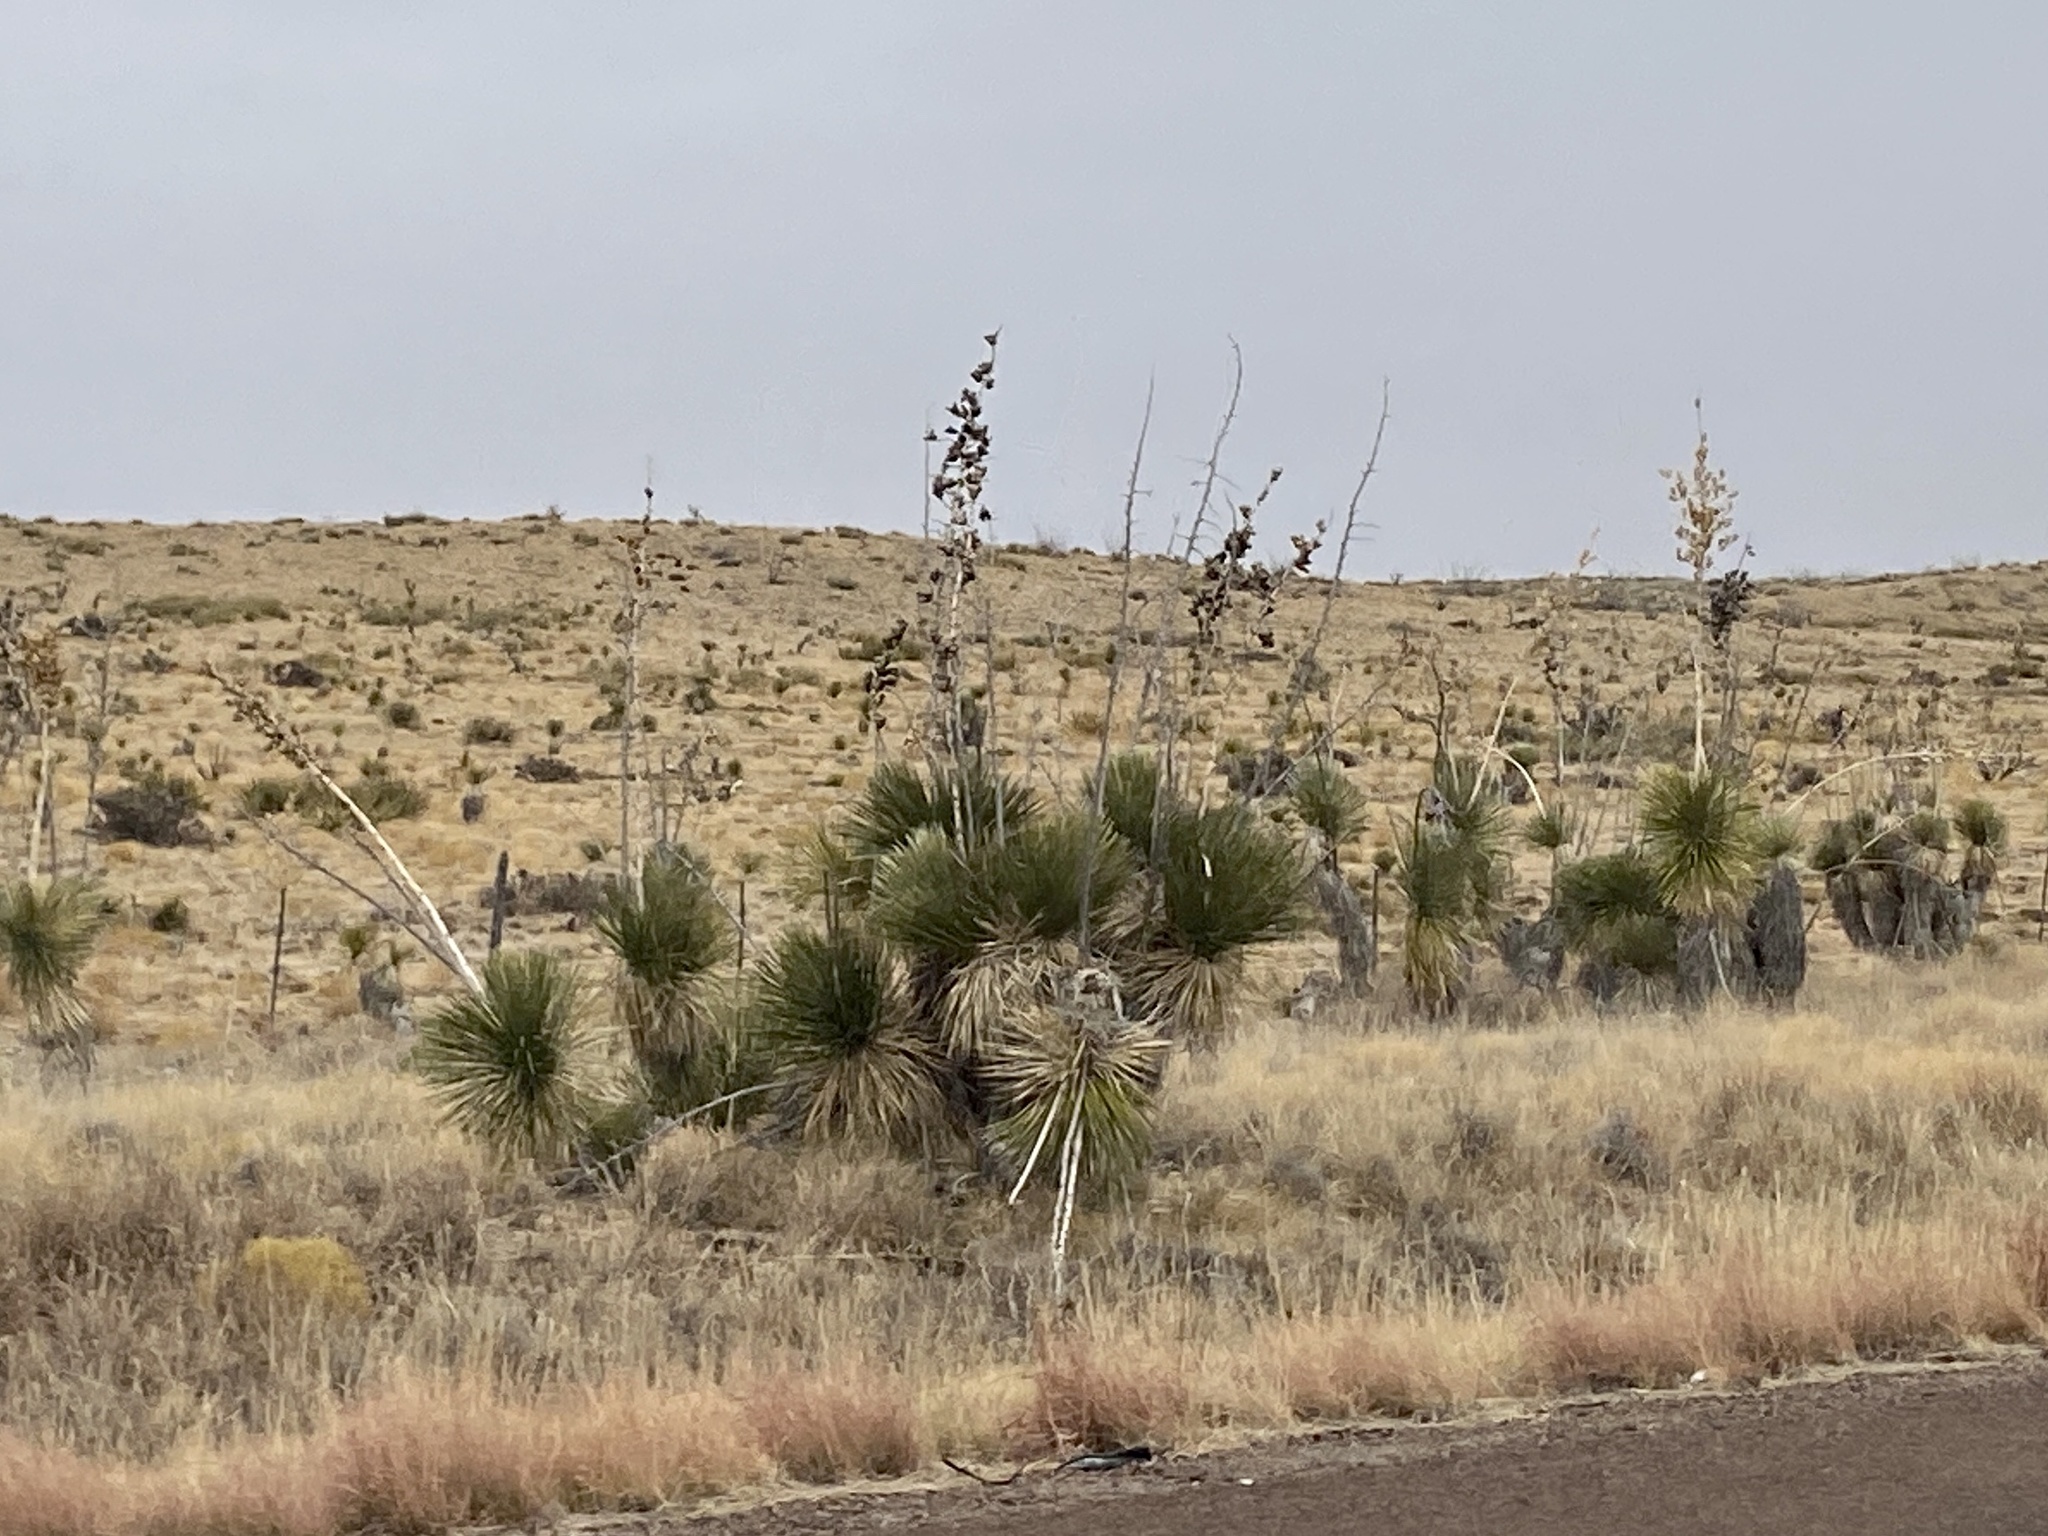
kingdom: Plantae
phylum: Tracheophyta
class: Liliopsida
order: Asparagales
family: Asparagaceae
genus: Yucca
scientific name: Yucca elata
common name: Palmella
